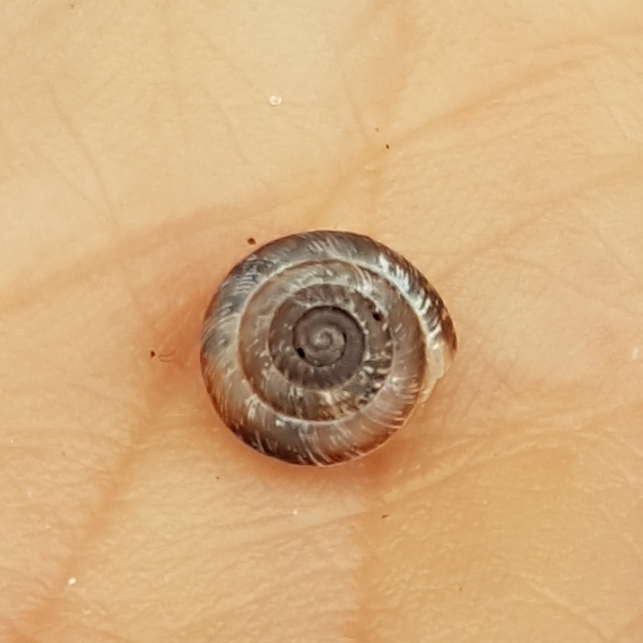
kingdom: Animalia
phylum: Mollusca
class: Gastropoda
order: Stylommatophora
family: Geomitridae
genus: Xeroplexa
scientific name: Xeroplexa intersecta
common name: Wrinkled snail
